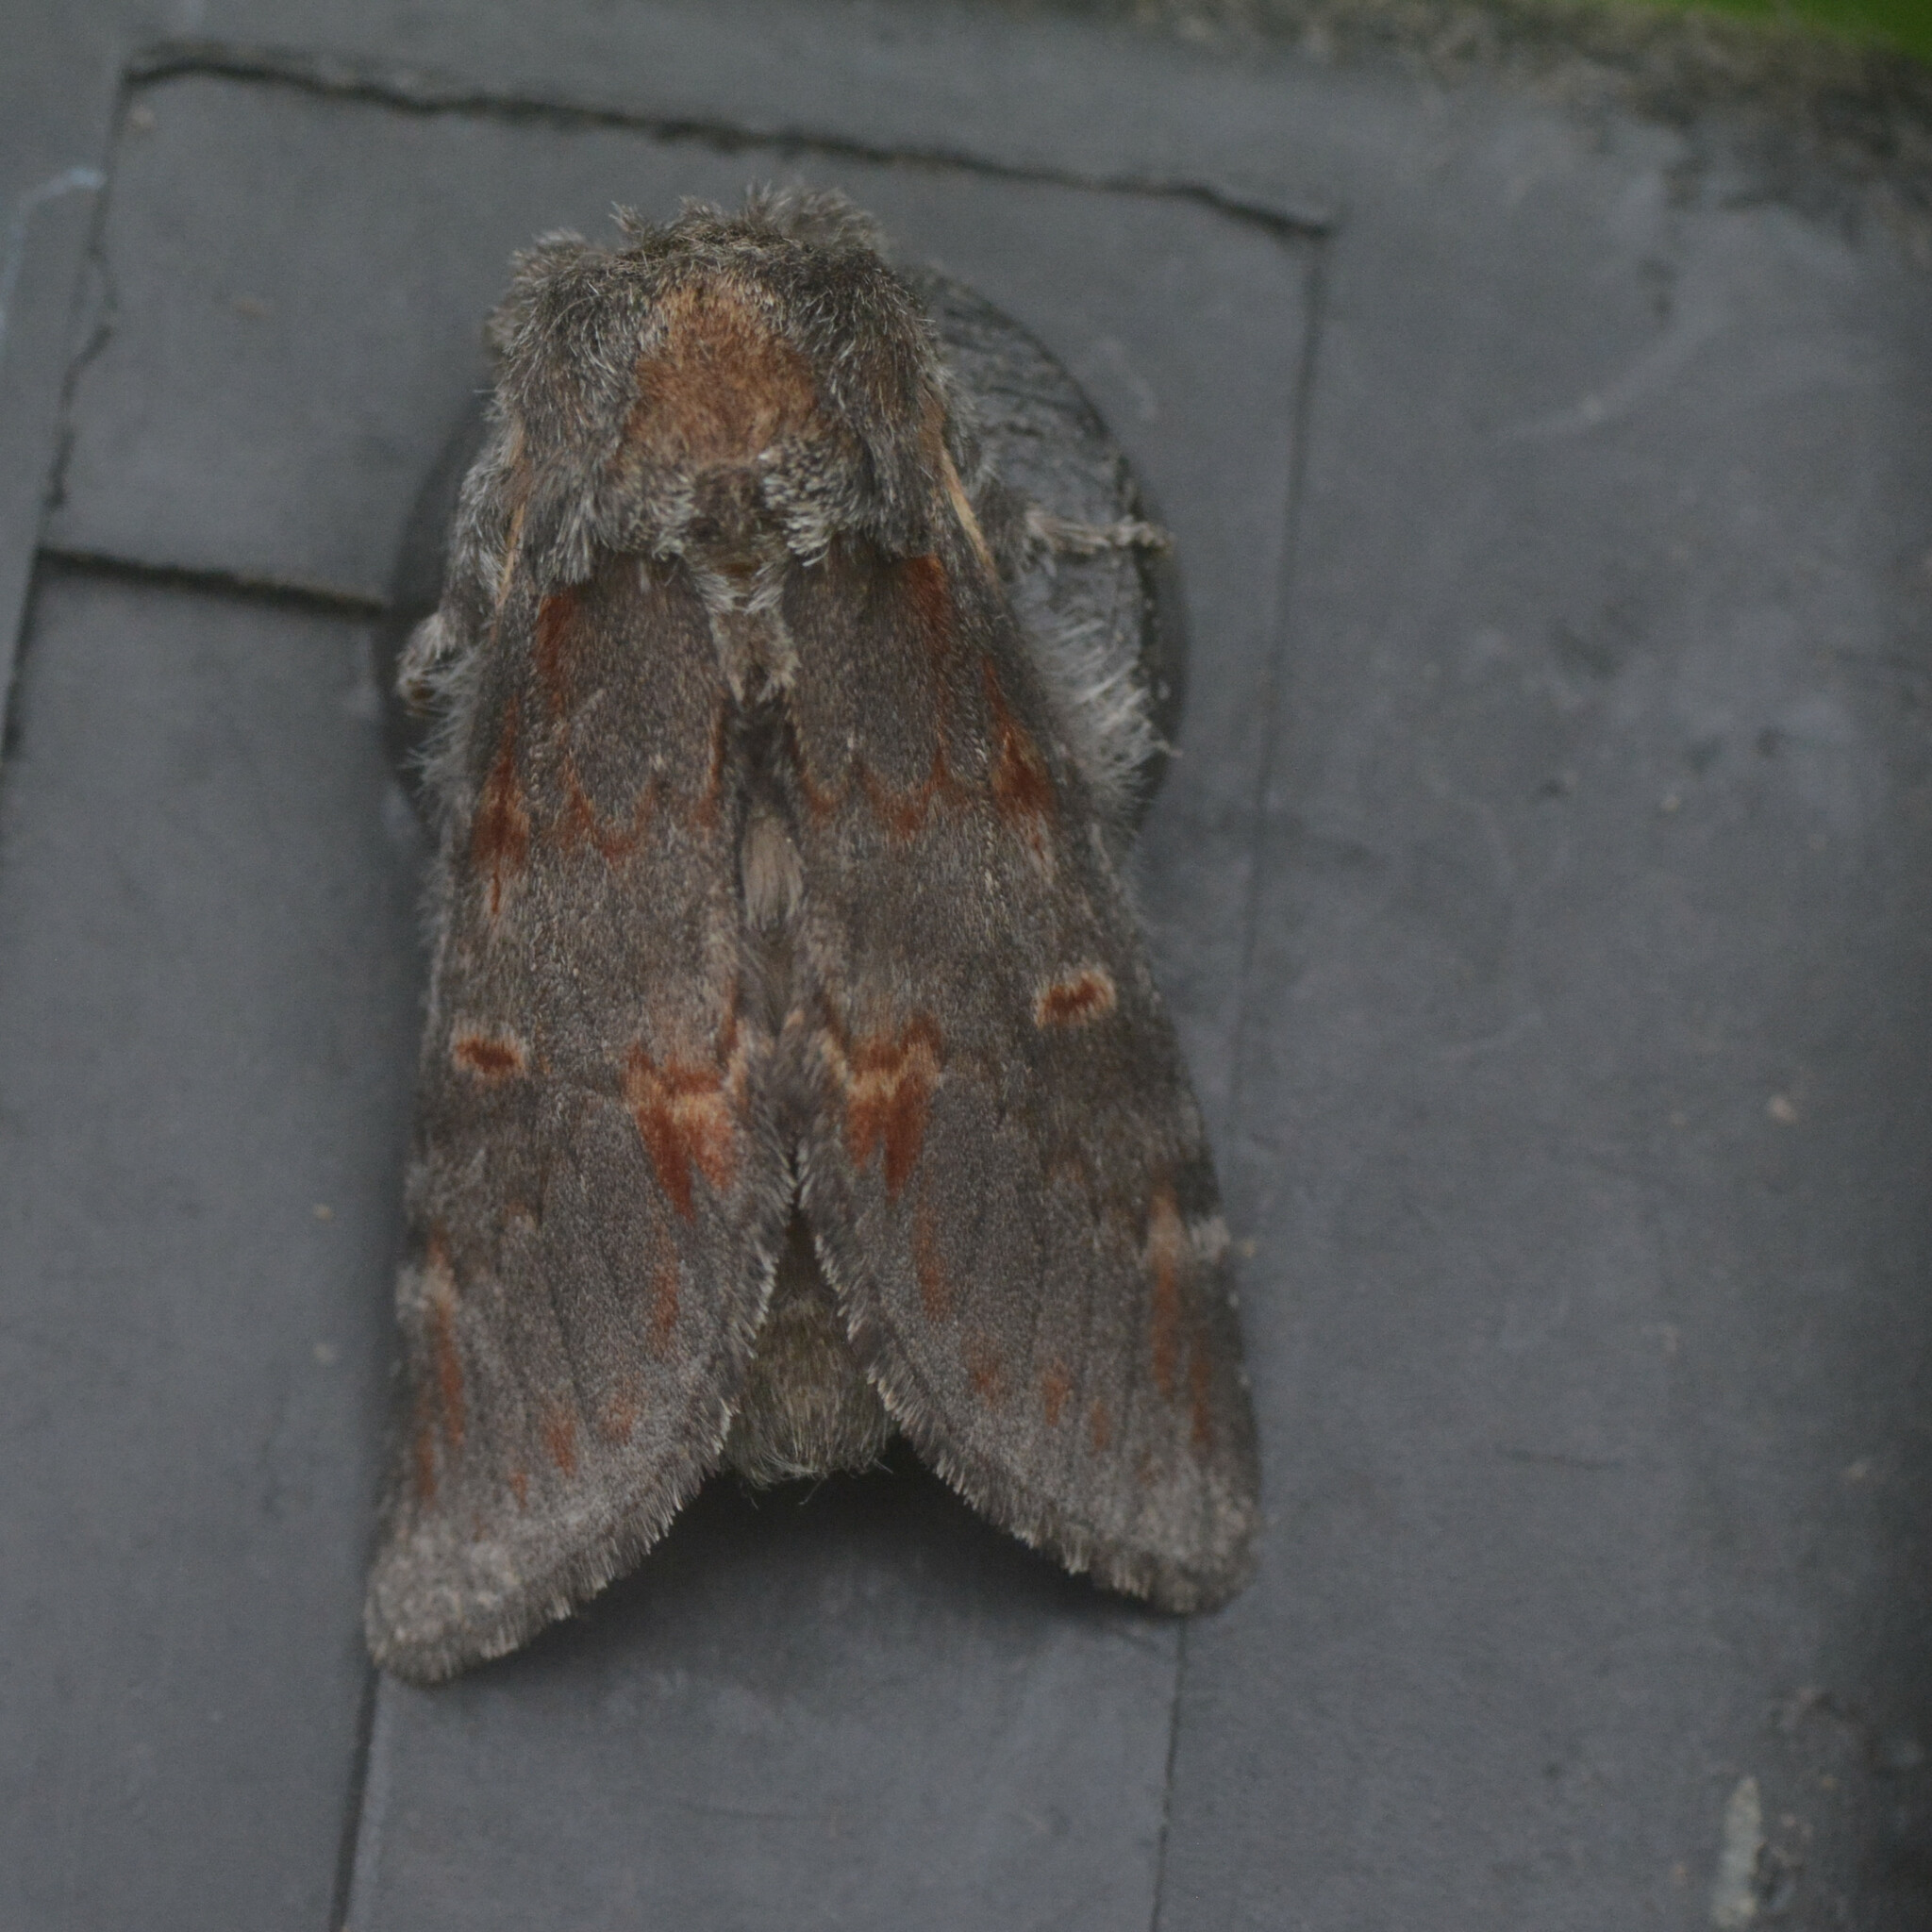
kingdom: Animalia
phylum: Arthropoda
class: Insecta
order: Lepidoptera
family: Notodontidae
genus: Notodonta
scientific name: Notodonta dromedarius
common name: Iron prominent
